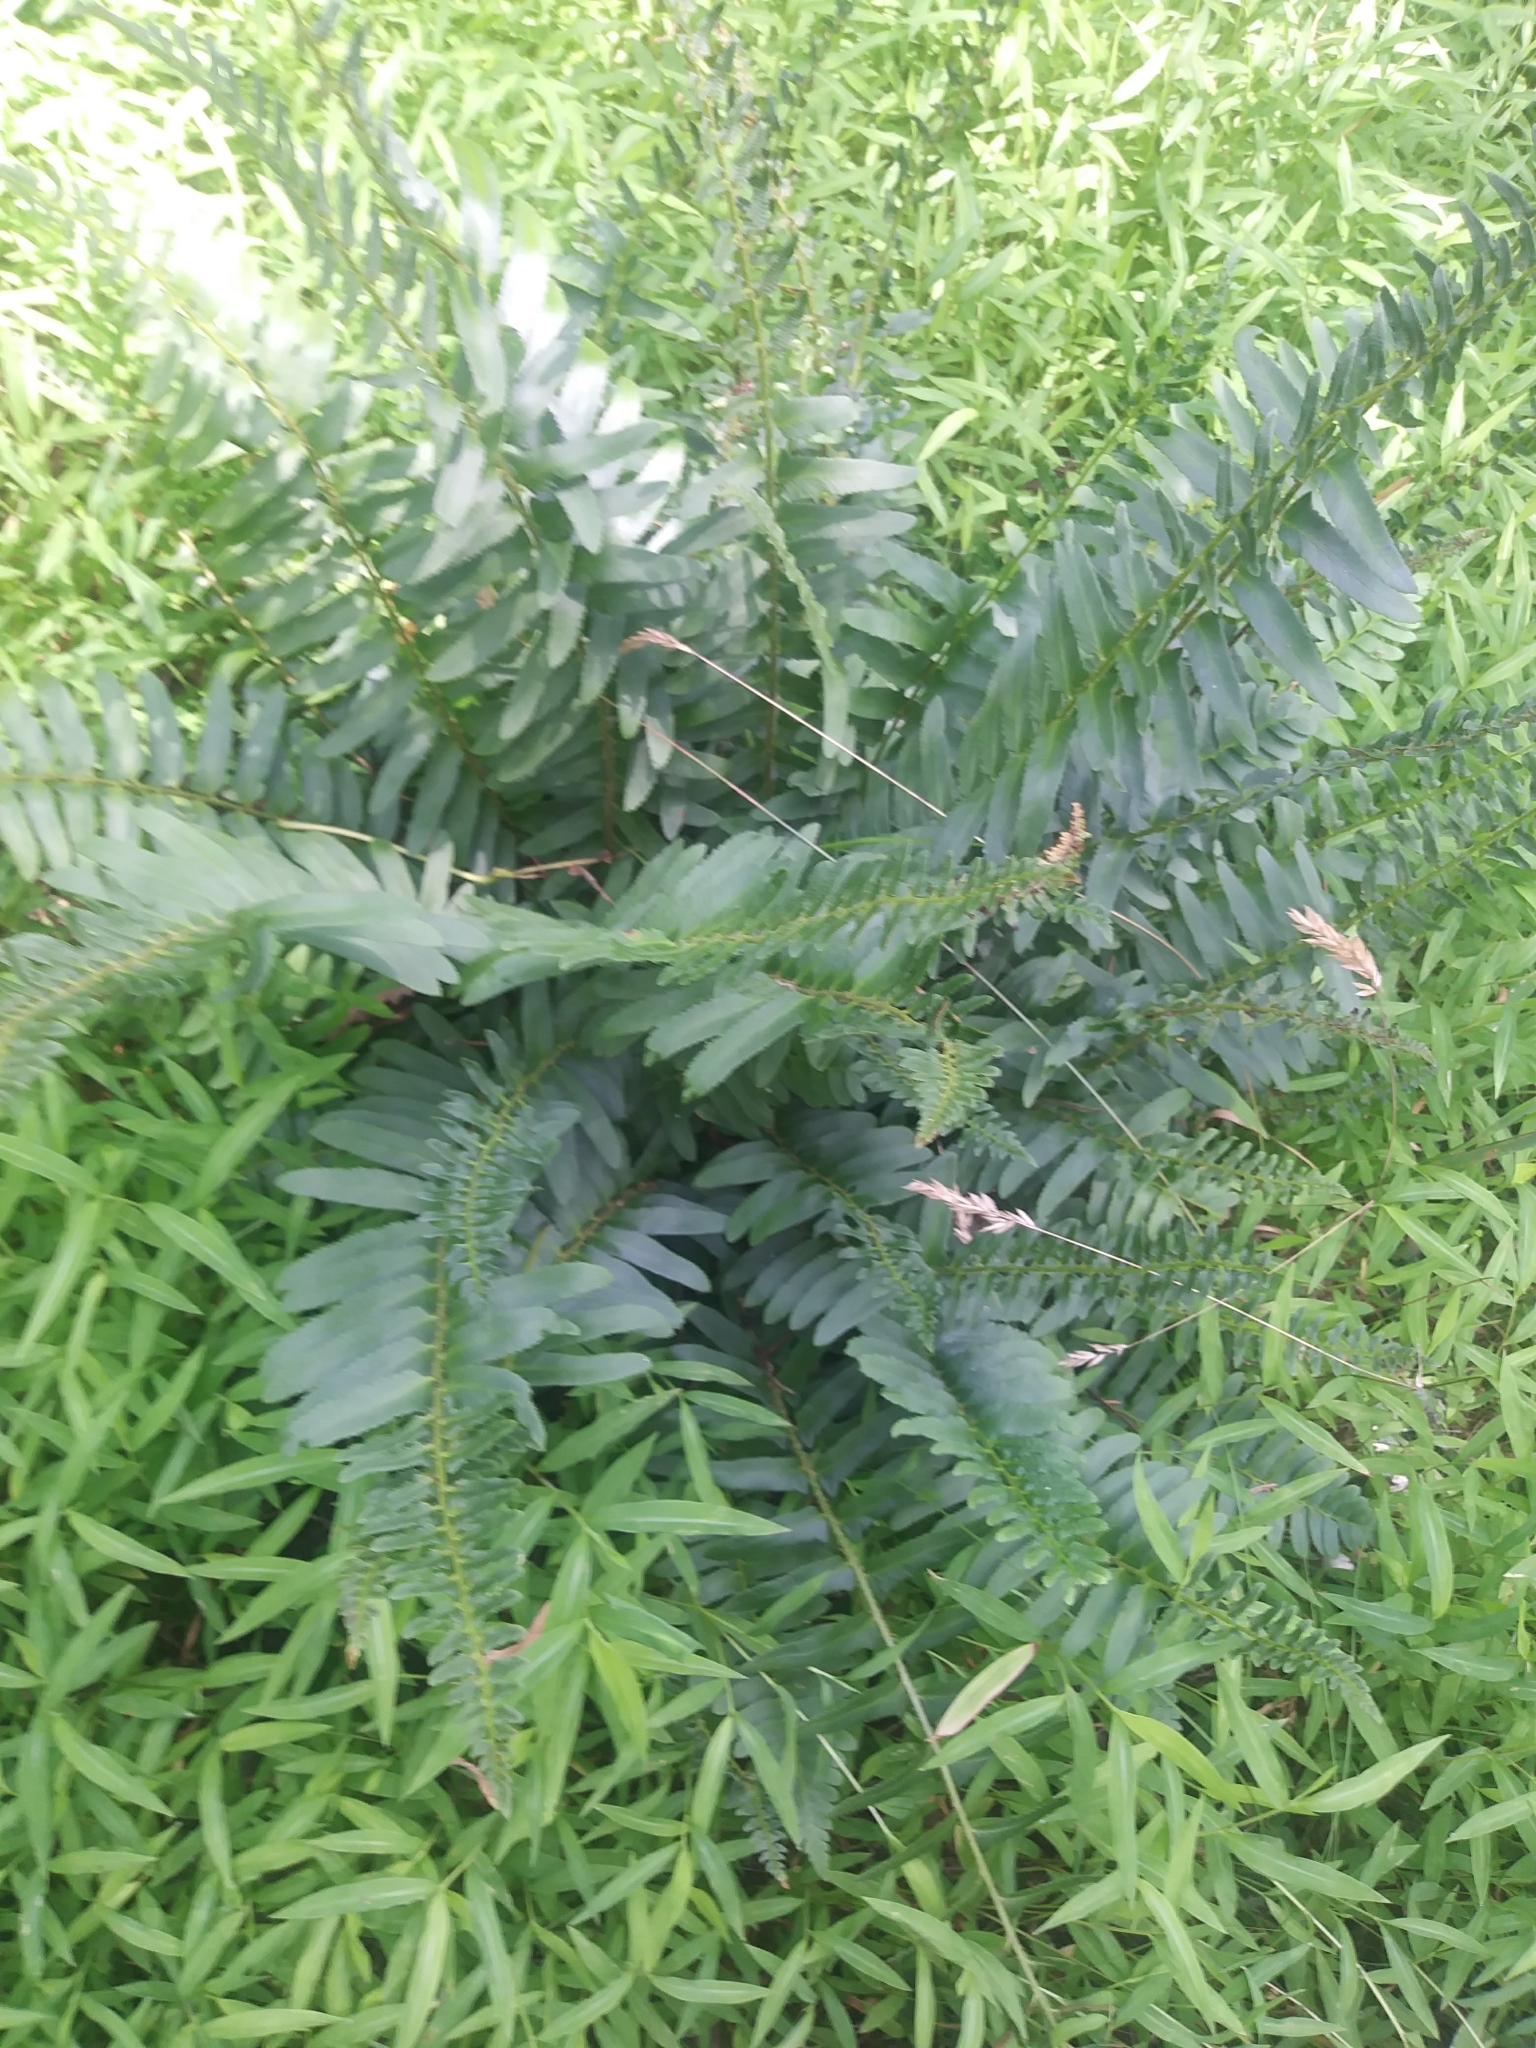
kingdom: Plantae
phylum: Tracheophyta
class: Polypodiopsida
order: Polypodiales
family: Dryopteridaceae
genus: Polystichum
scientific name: Polystichum acrostichoides
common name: Christmas fern
